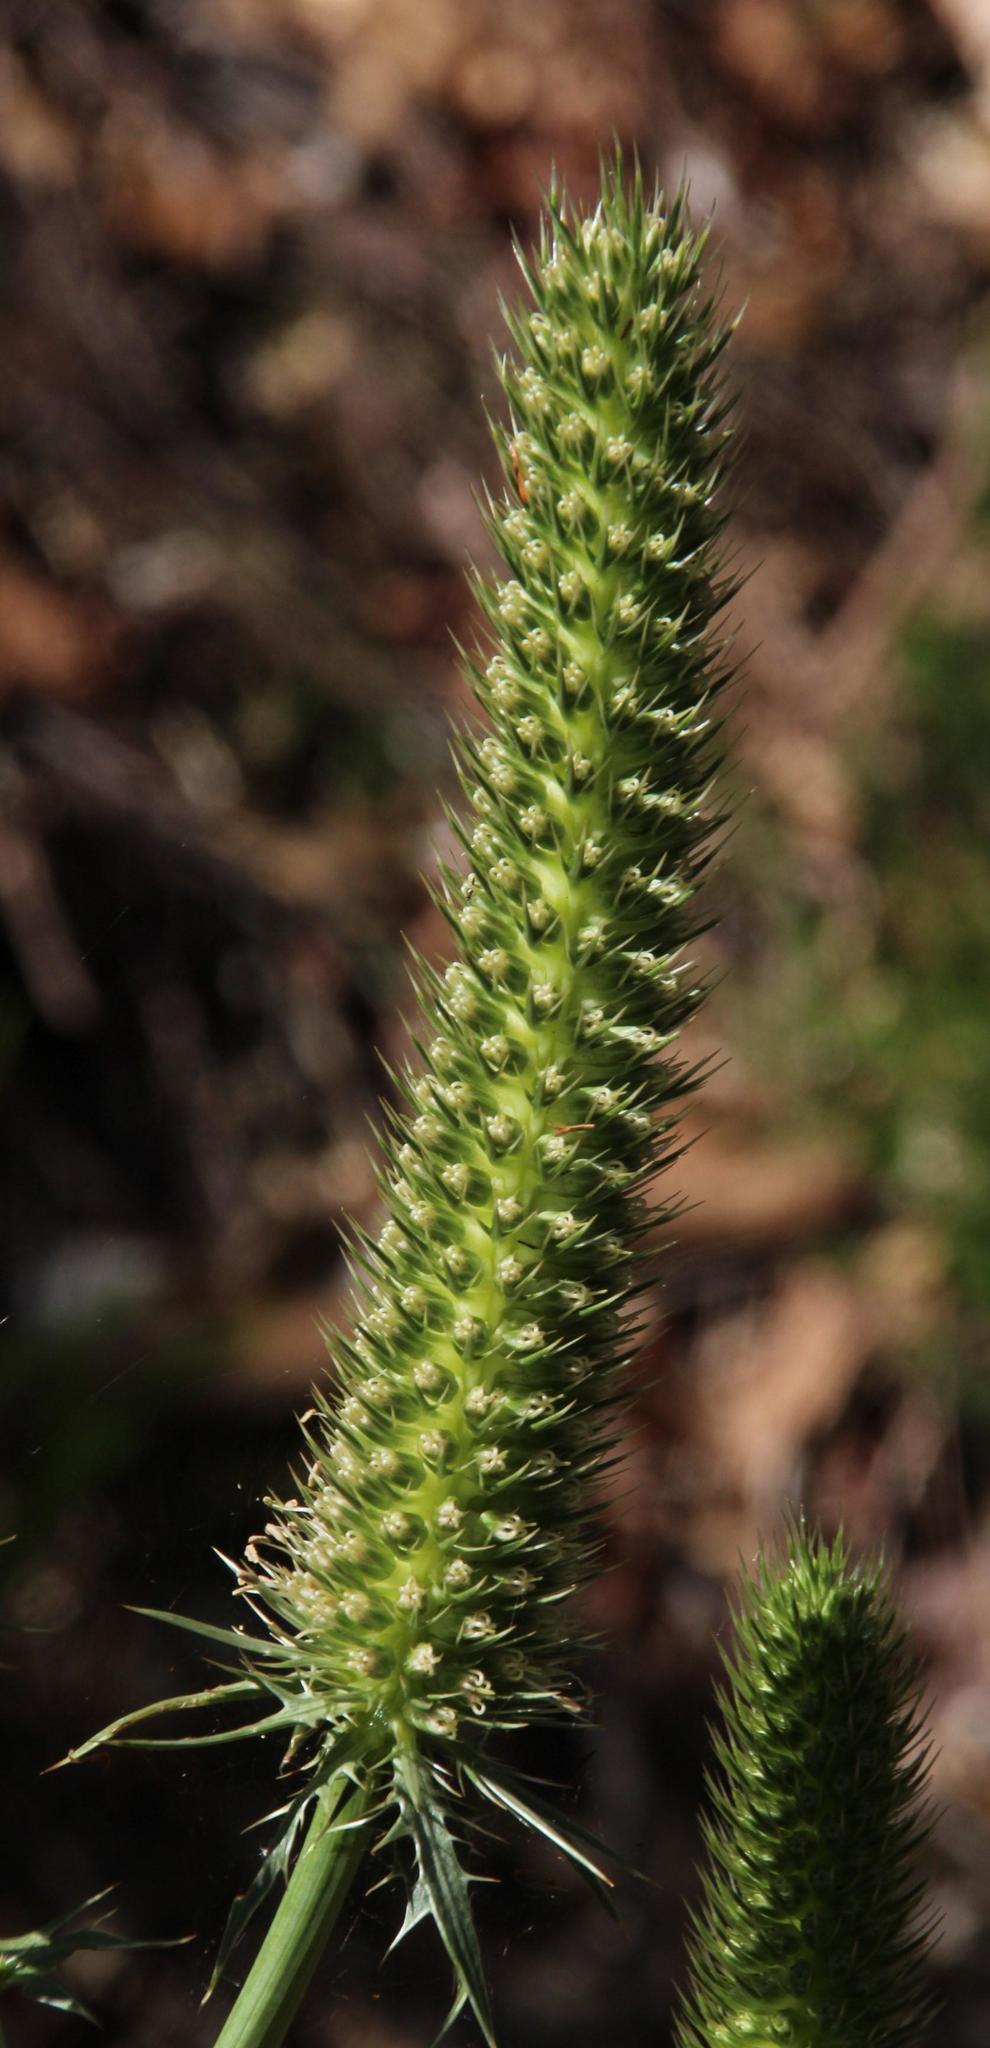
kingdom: Plantae
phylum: Tracheophyta
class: Magnoliopsida
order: Apiales
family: Apiaceae
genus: Eryngium
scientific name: Eryngium duriaei
